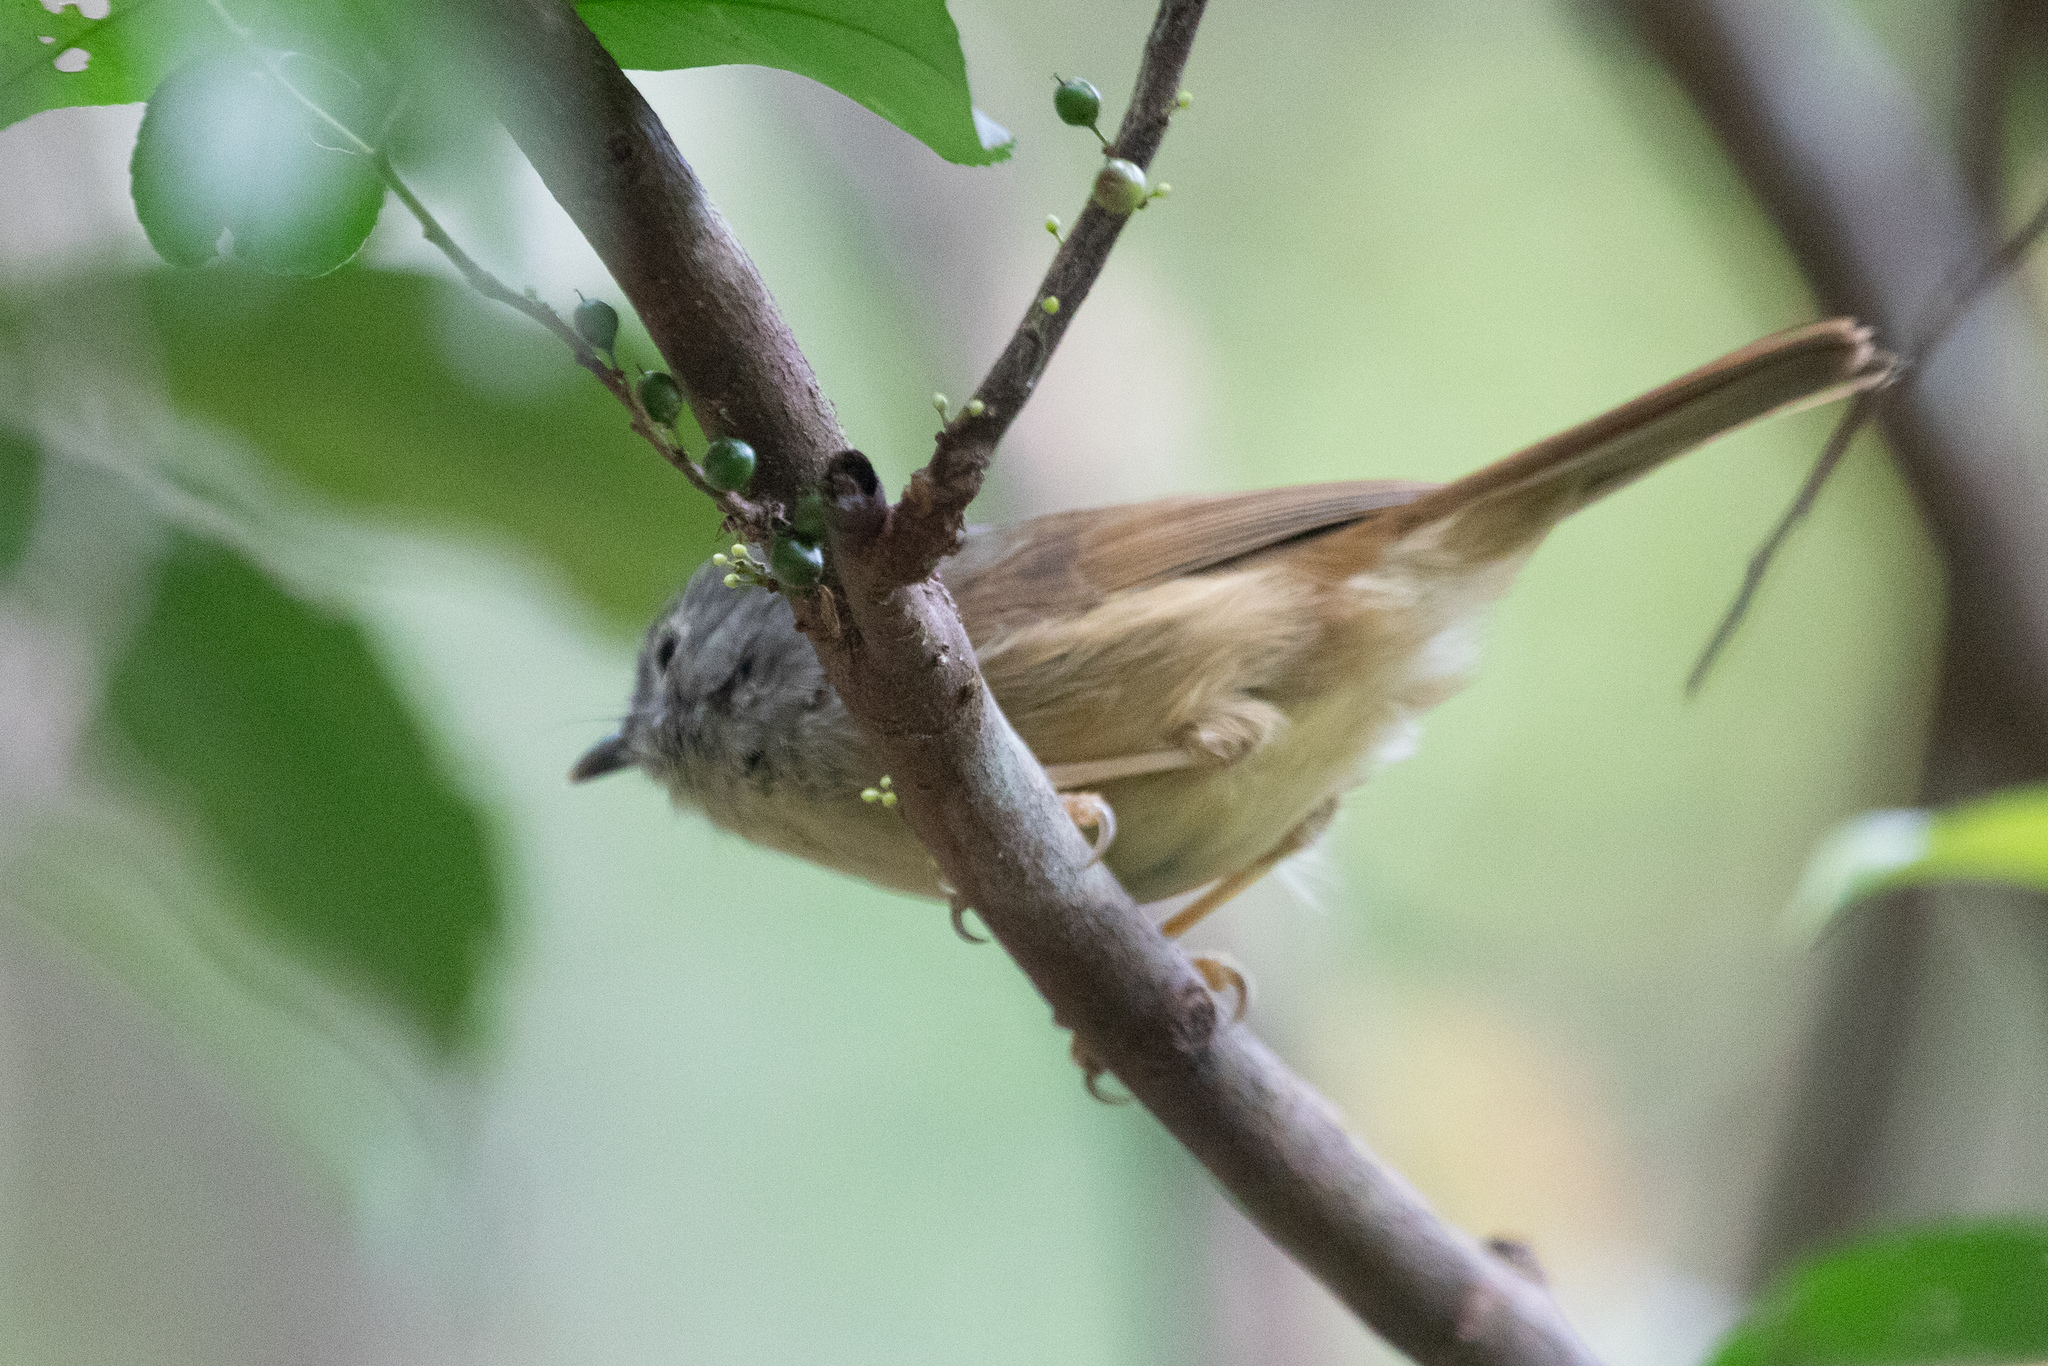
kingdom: Animalia
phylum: Chordata
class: Aves
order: Passeriformes
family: Pellorneidae
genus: Alcippe
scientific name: Alcippe hueti
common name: Huet's fulvetta
